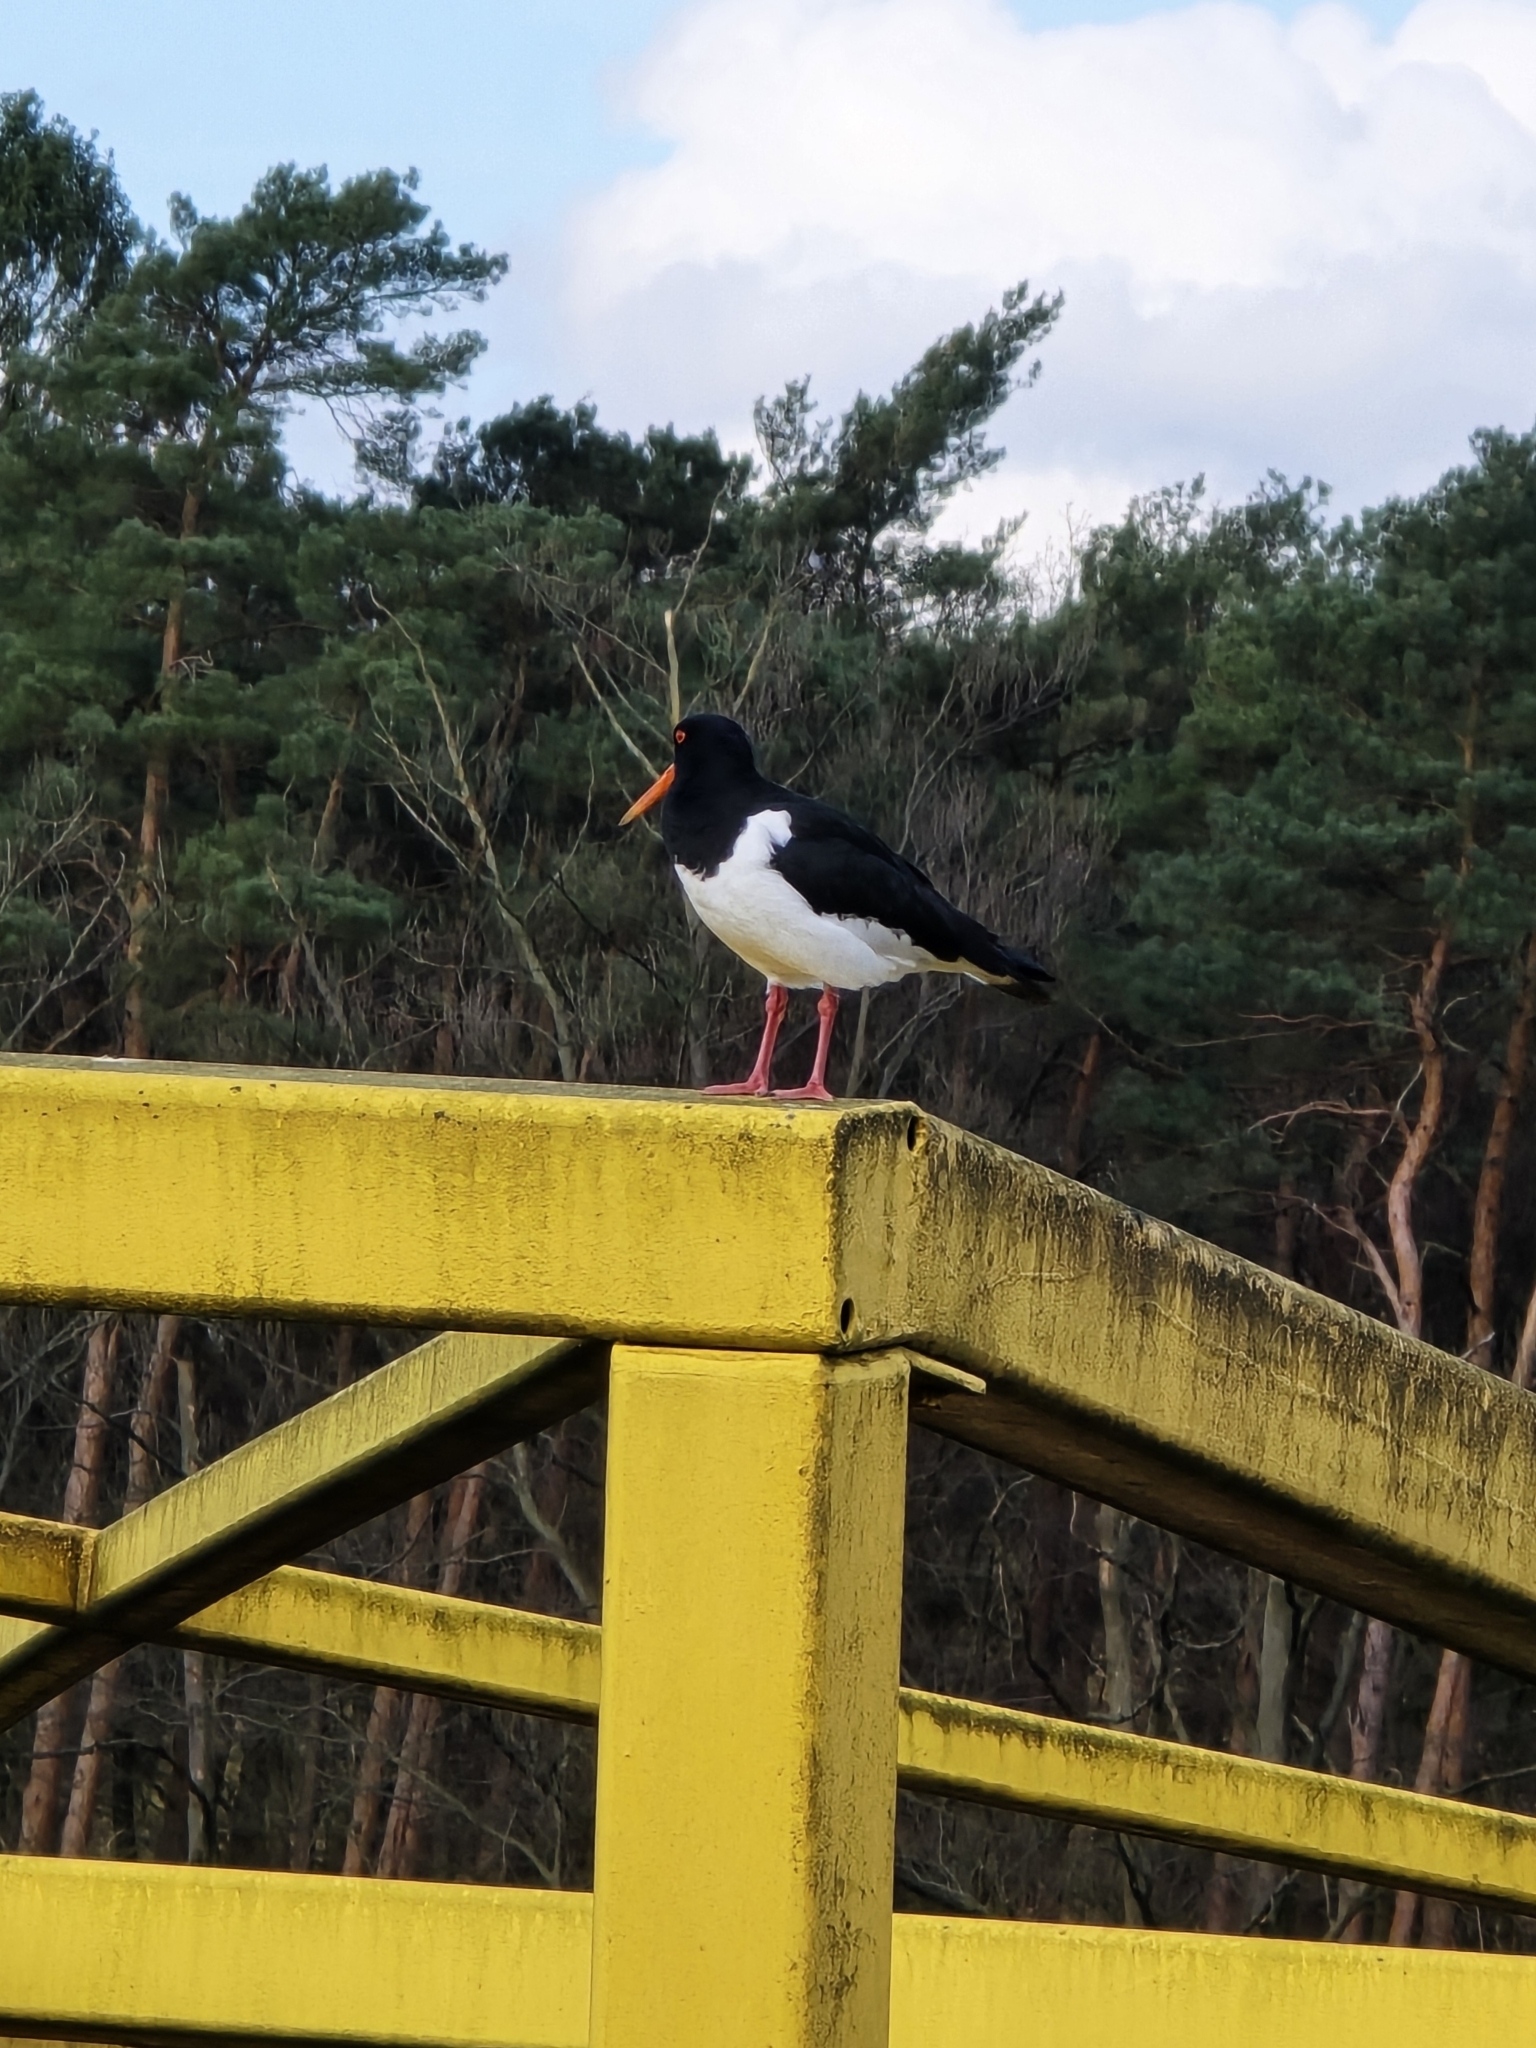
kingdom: Animalia
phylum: Chordata
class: Aves
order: Charadriiformes
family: Haematopodidae
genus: Haematopus
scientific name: Haematopus ostralegus
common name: Eurasian oystercatcher
